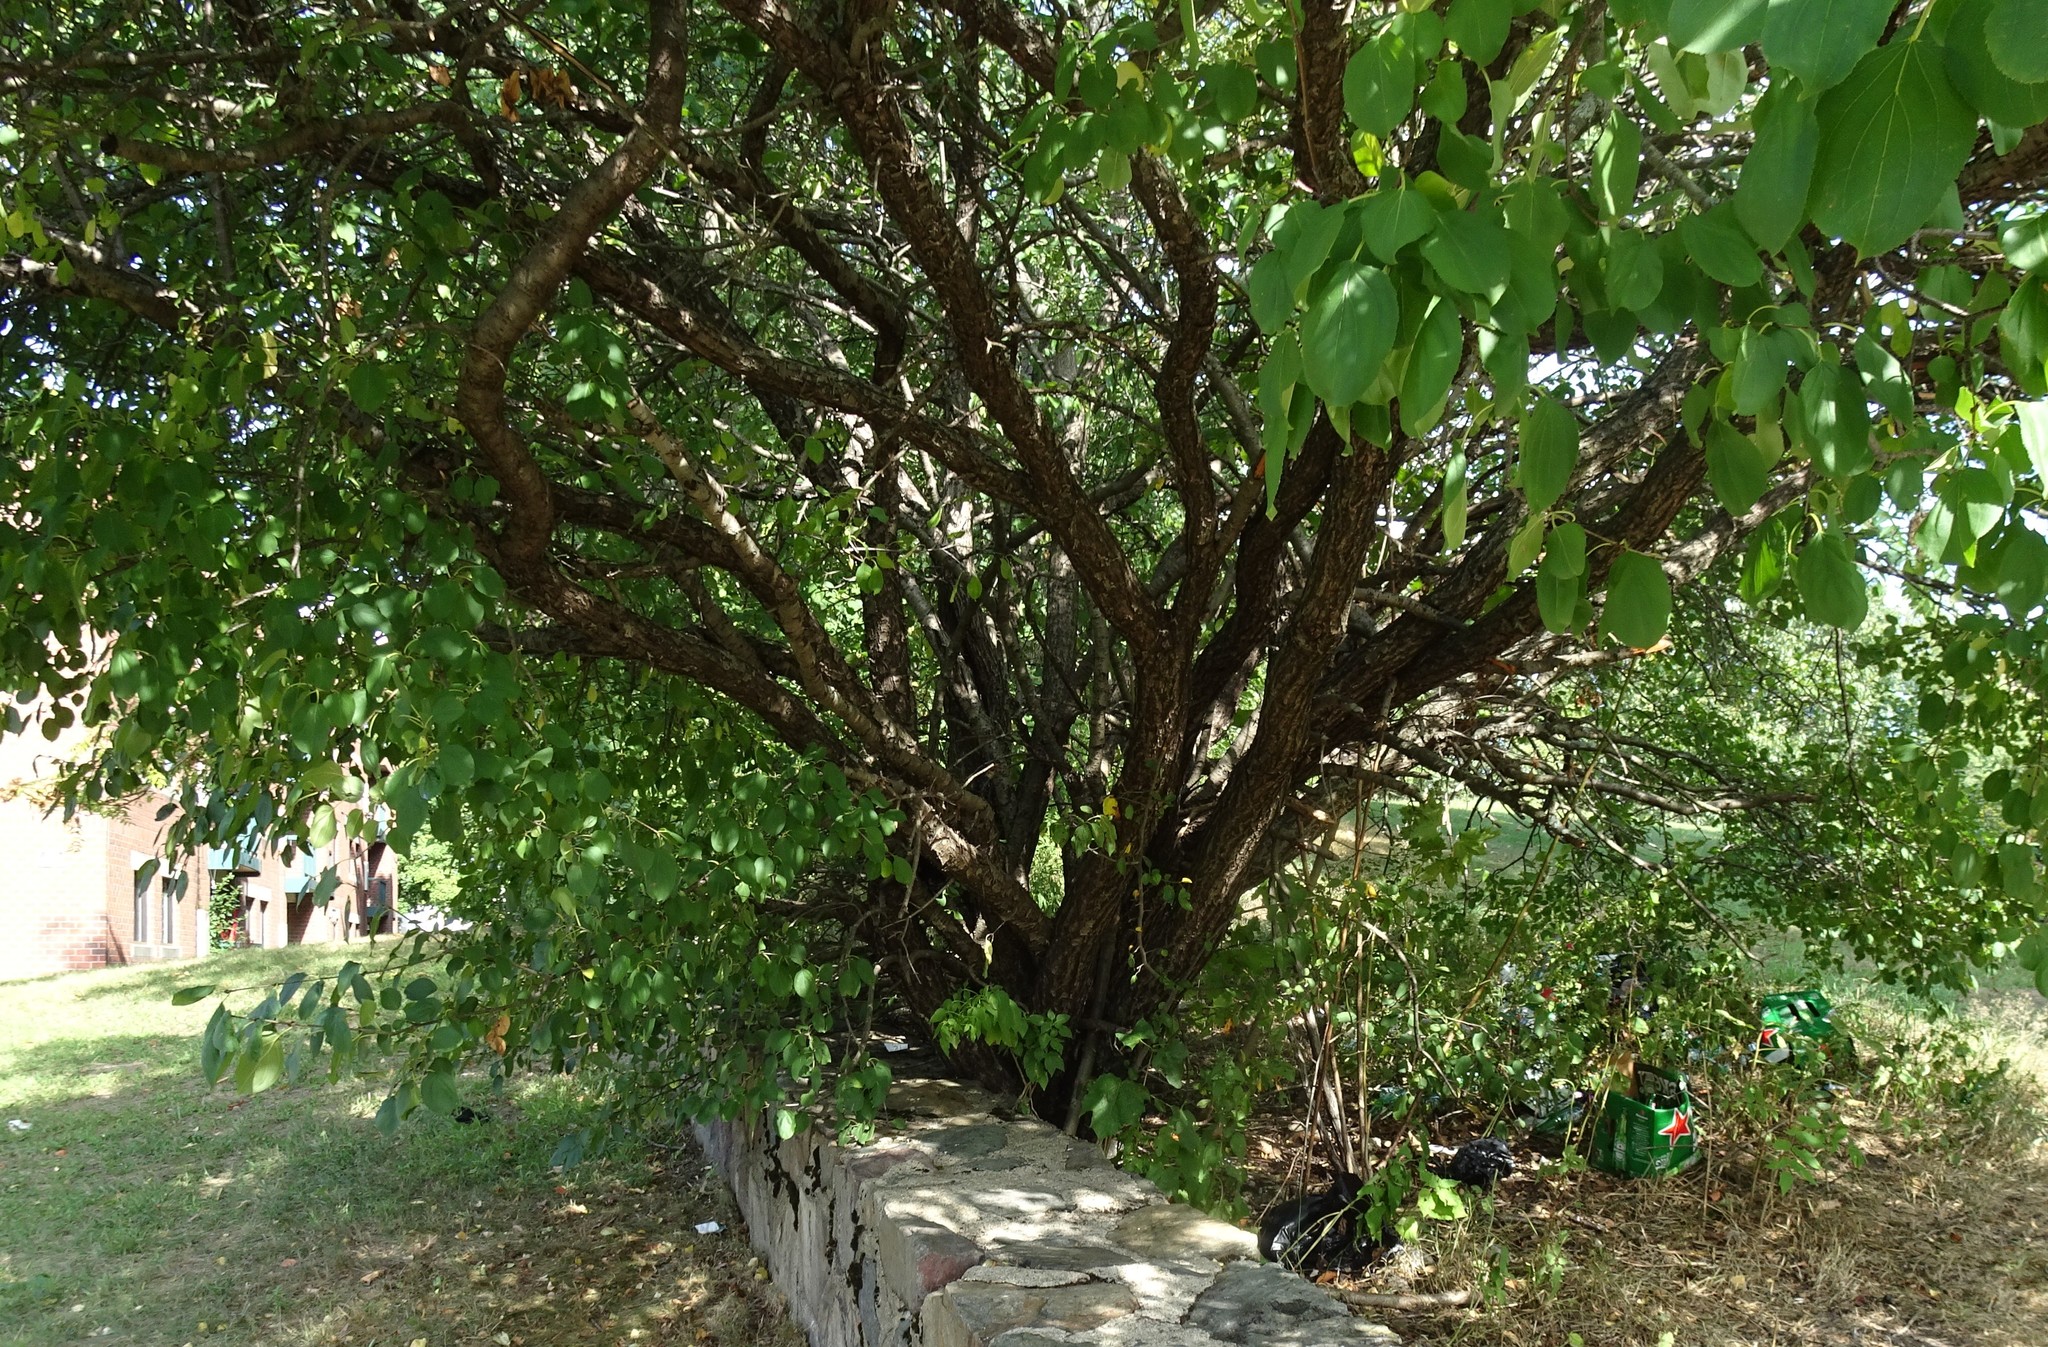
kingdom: Plantae
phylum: Tracheophyta
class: Magnoliopsida
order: Rosales
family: Rhamnaceae
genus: Rhamnus
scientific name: Rhamnus cathartica
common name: Common buckthorn
